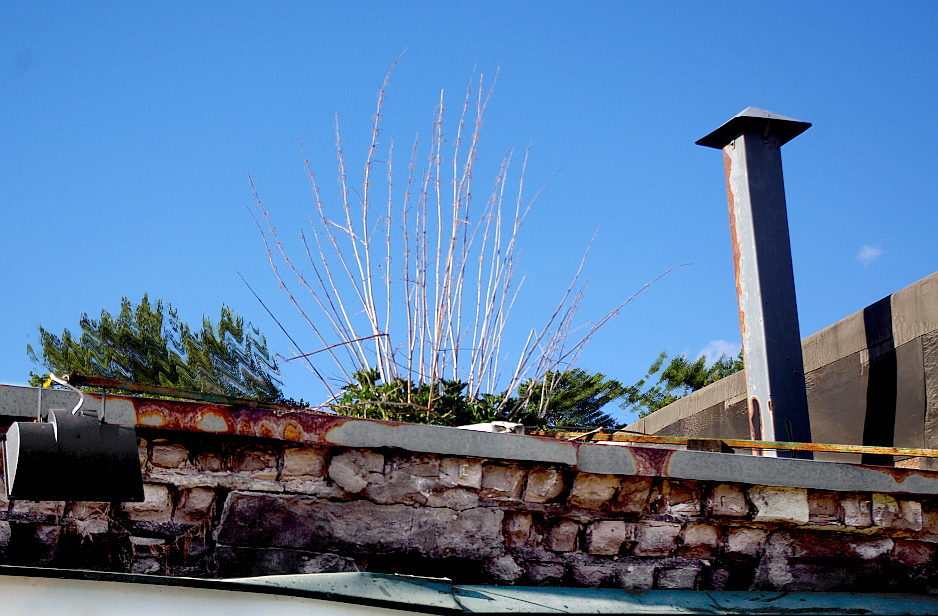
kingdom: Plantae
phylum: Tracheophyta
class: Magnoliopsida
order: Rosales
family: Urticaceae
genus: Urtica
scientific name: Urtica dioica
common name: Common nettle
